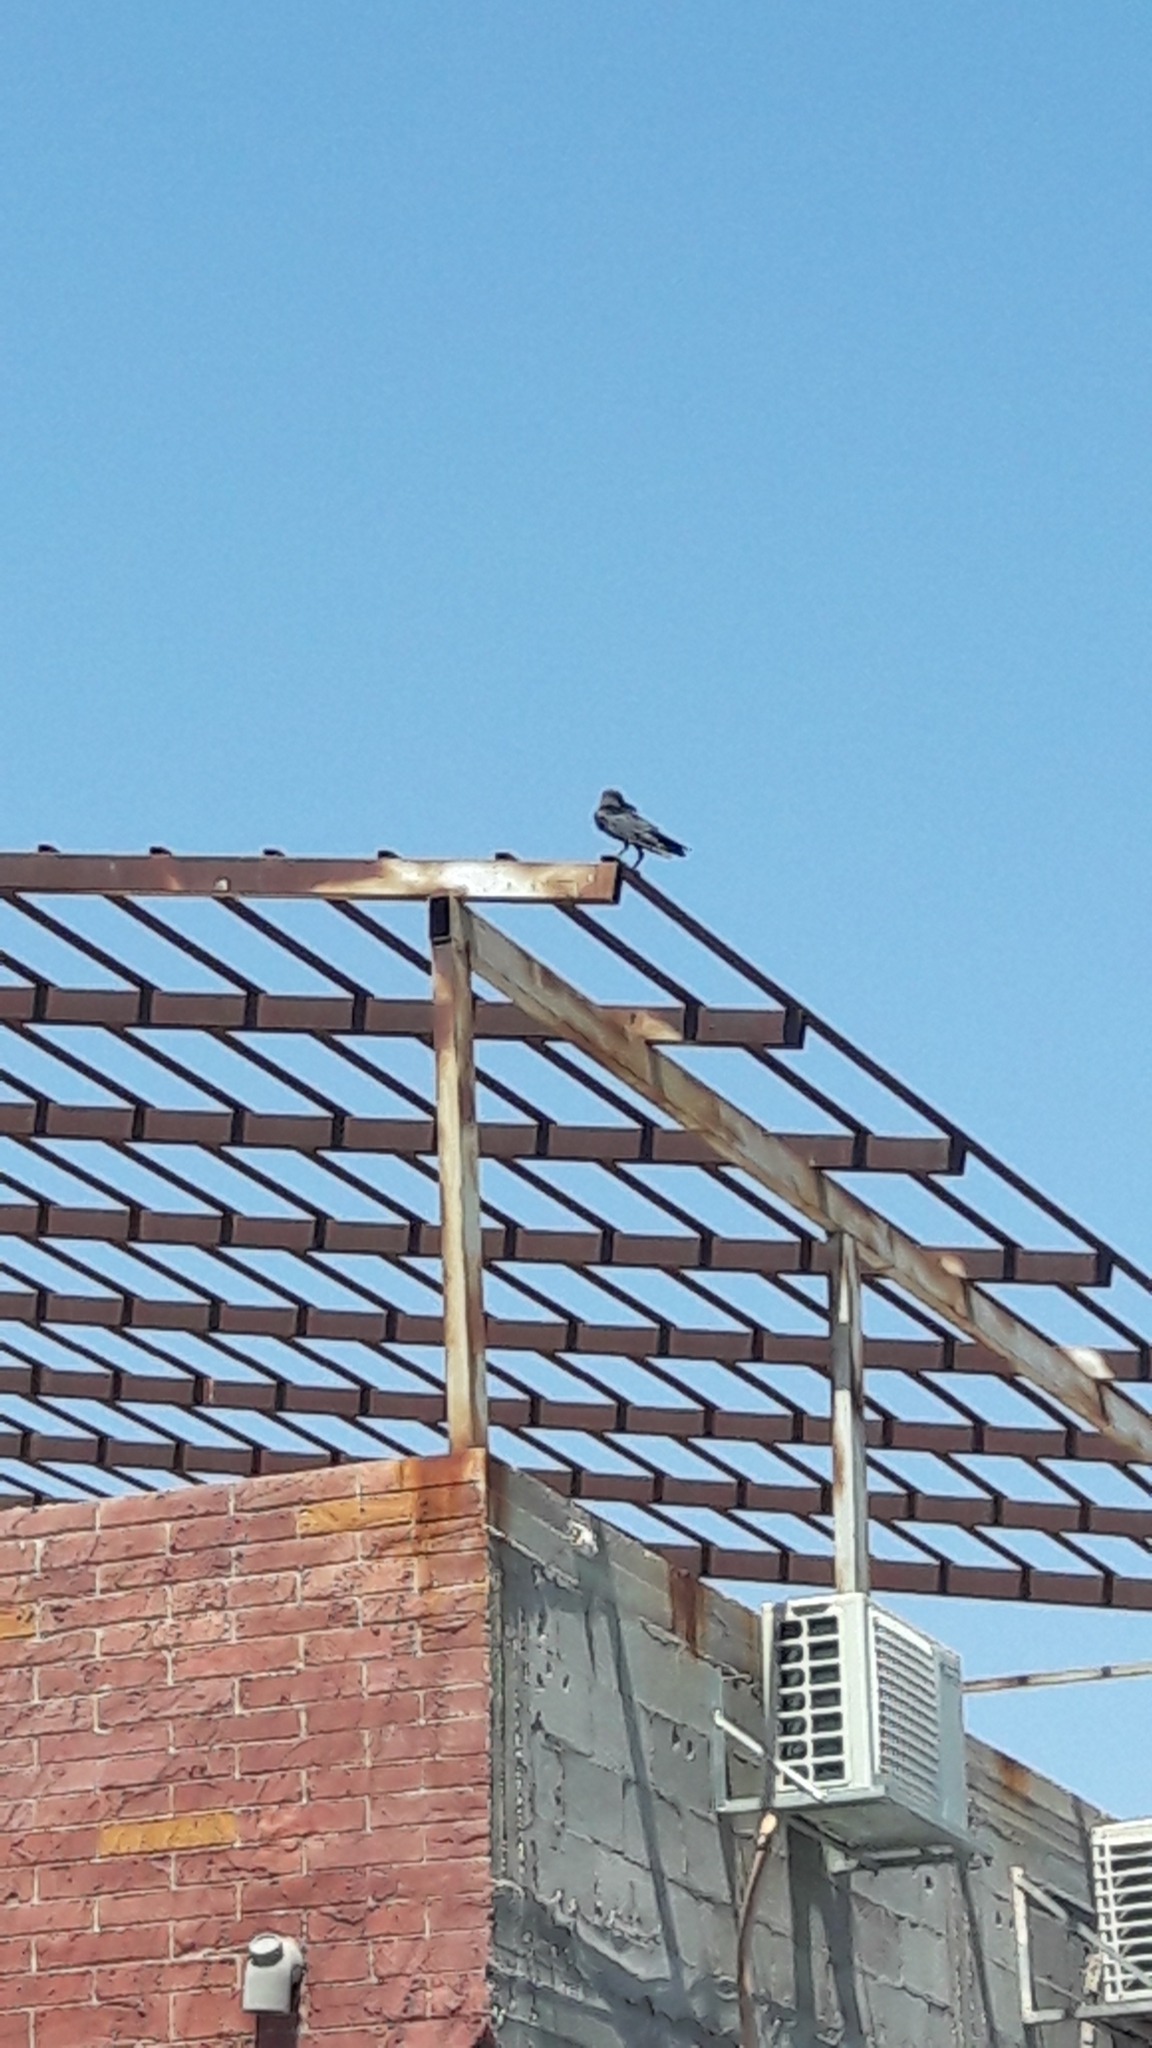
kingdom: Animalia
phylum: Chordata
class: Aves
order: Passeriformes
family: Corvidae
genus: Corvus
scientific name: Corvus splendens
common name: House crow
